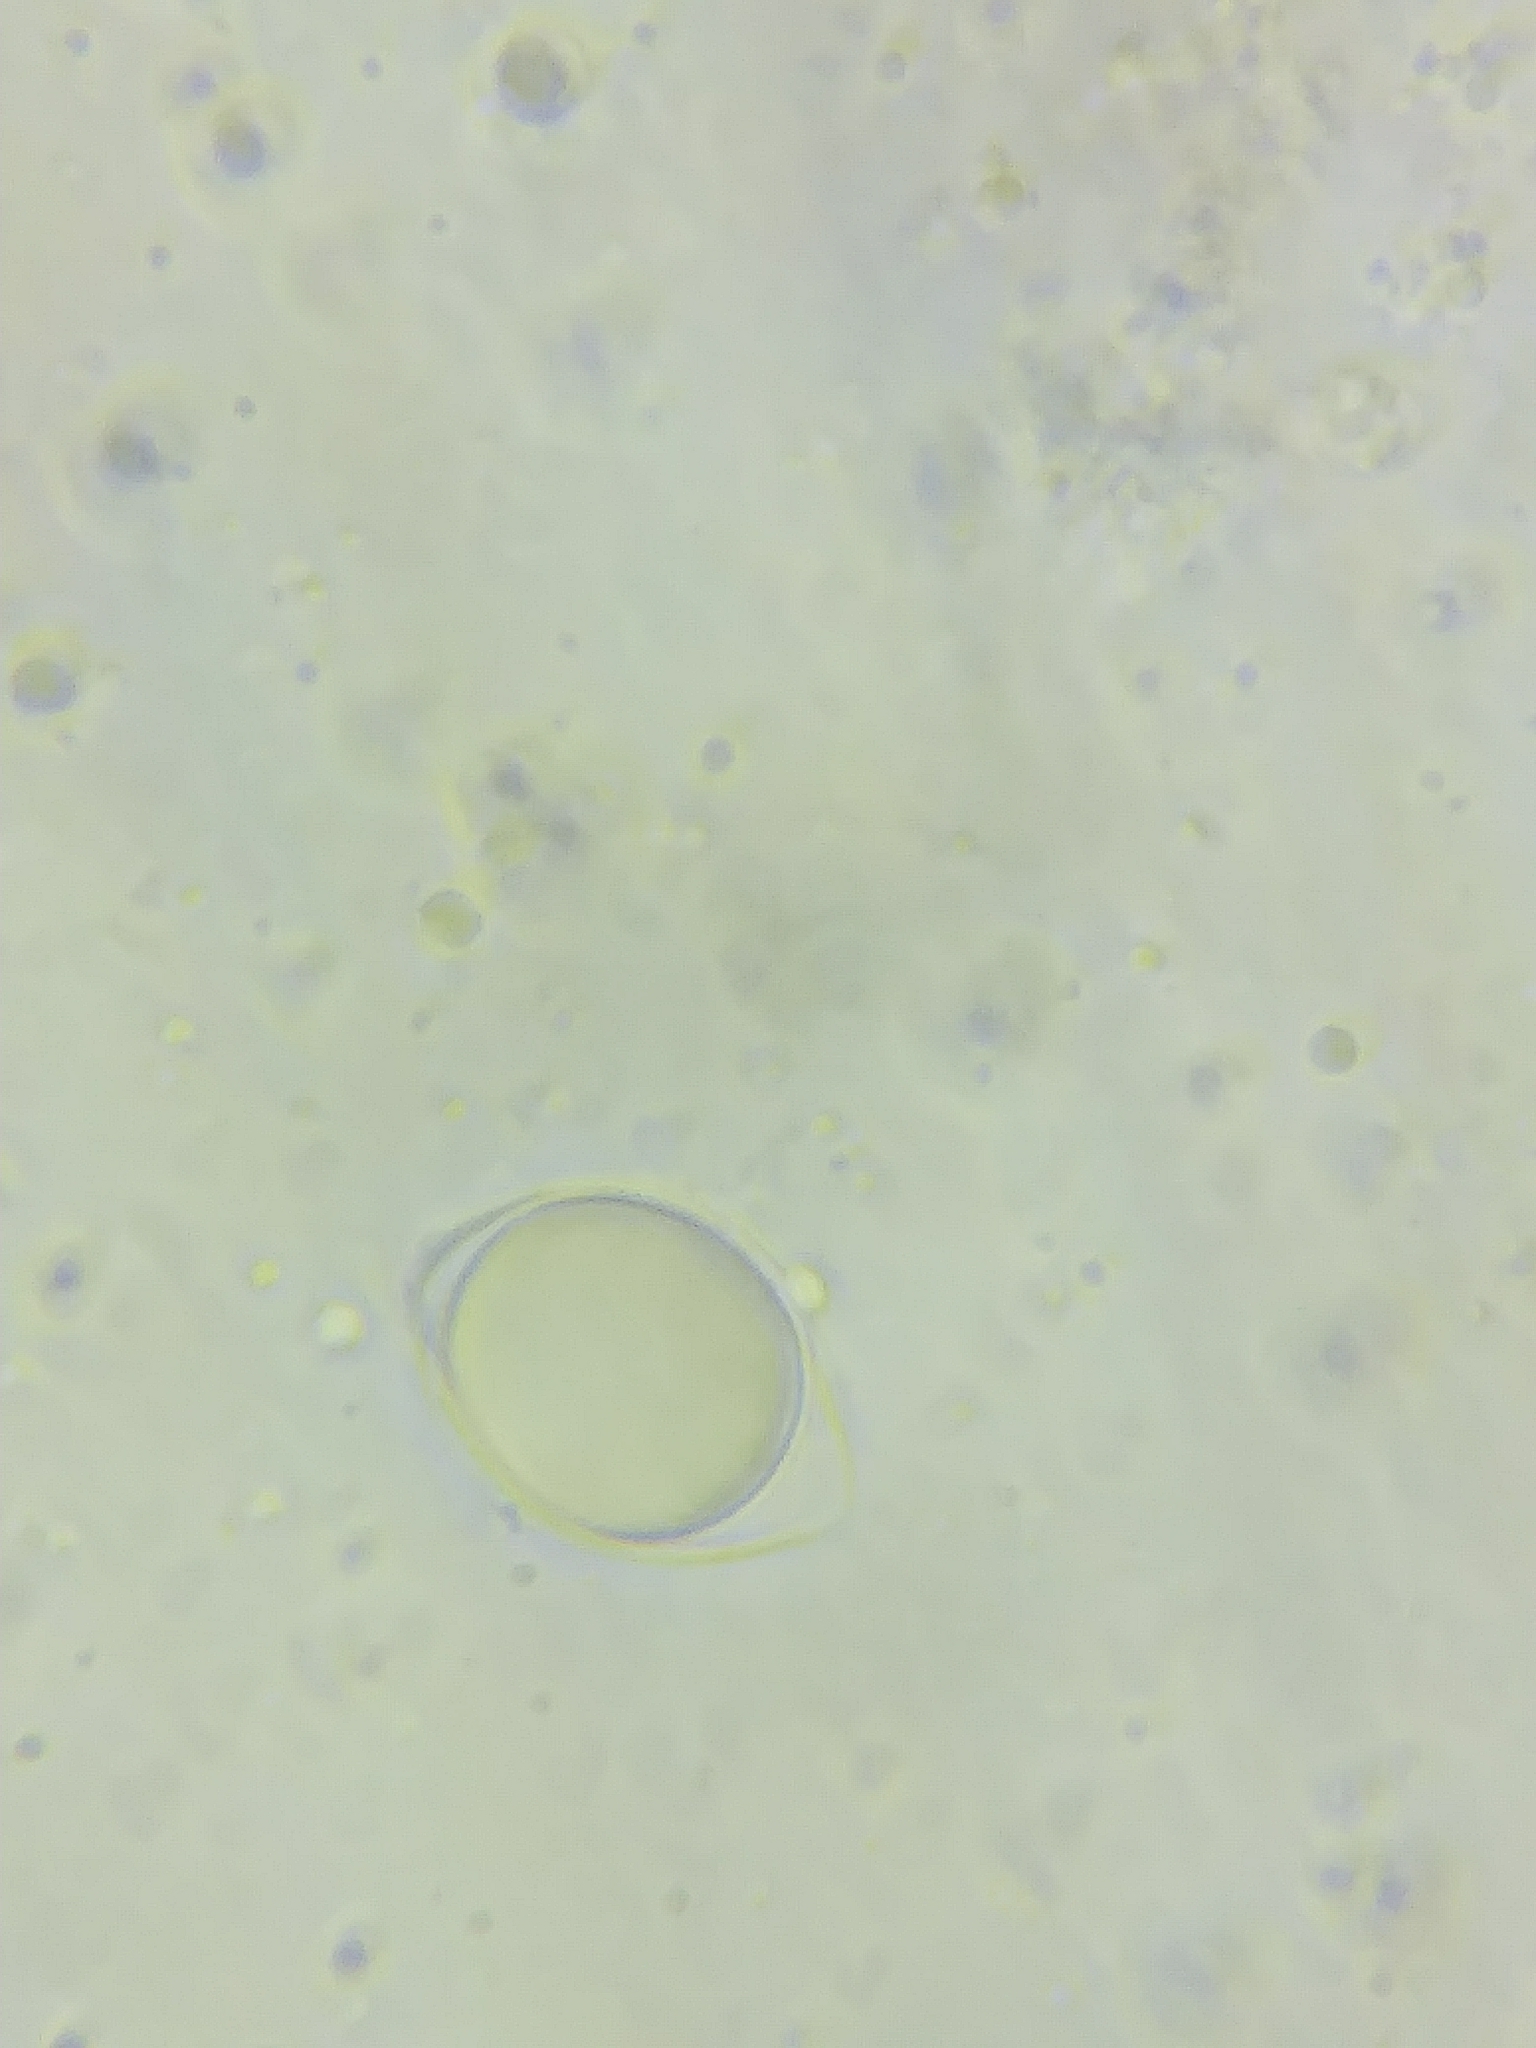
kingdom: Fungi
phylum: Basidiomycota
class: Agaricomycetes
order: Agaricales
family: Physalacriaceae
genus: Hymenopellis
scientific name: Hymenopellis limonispora
